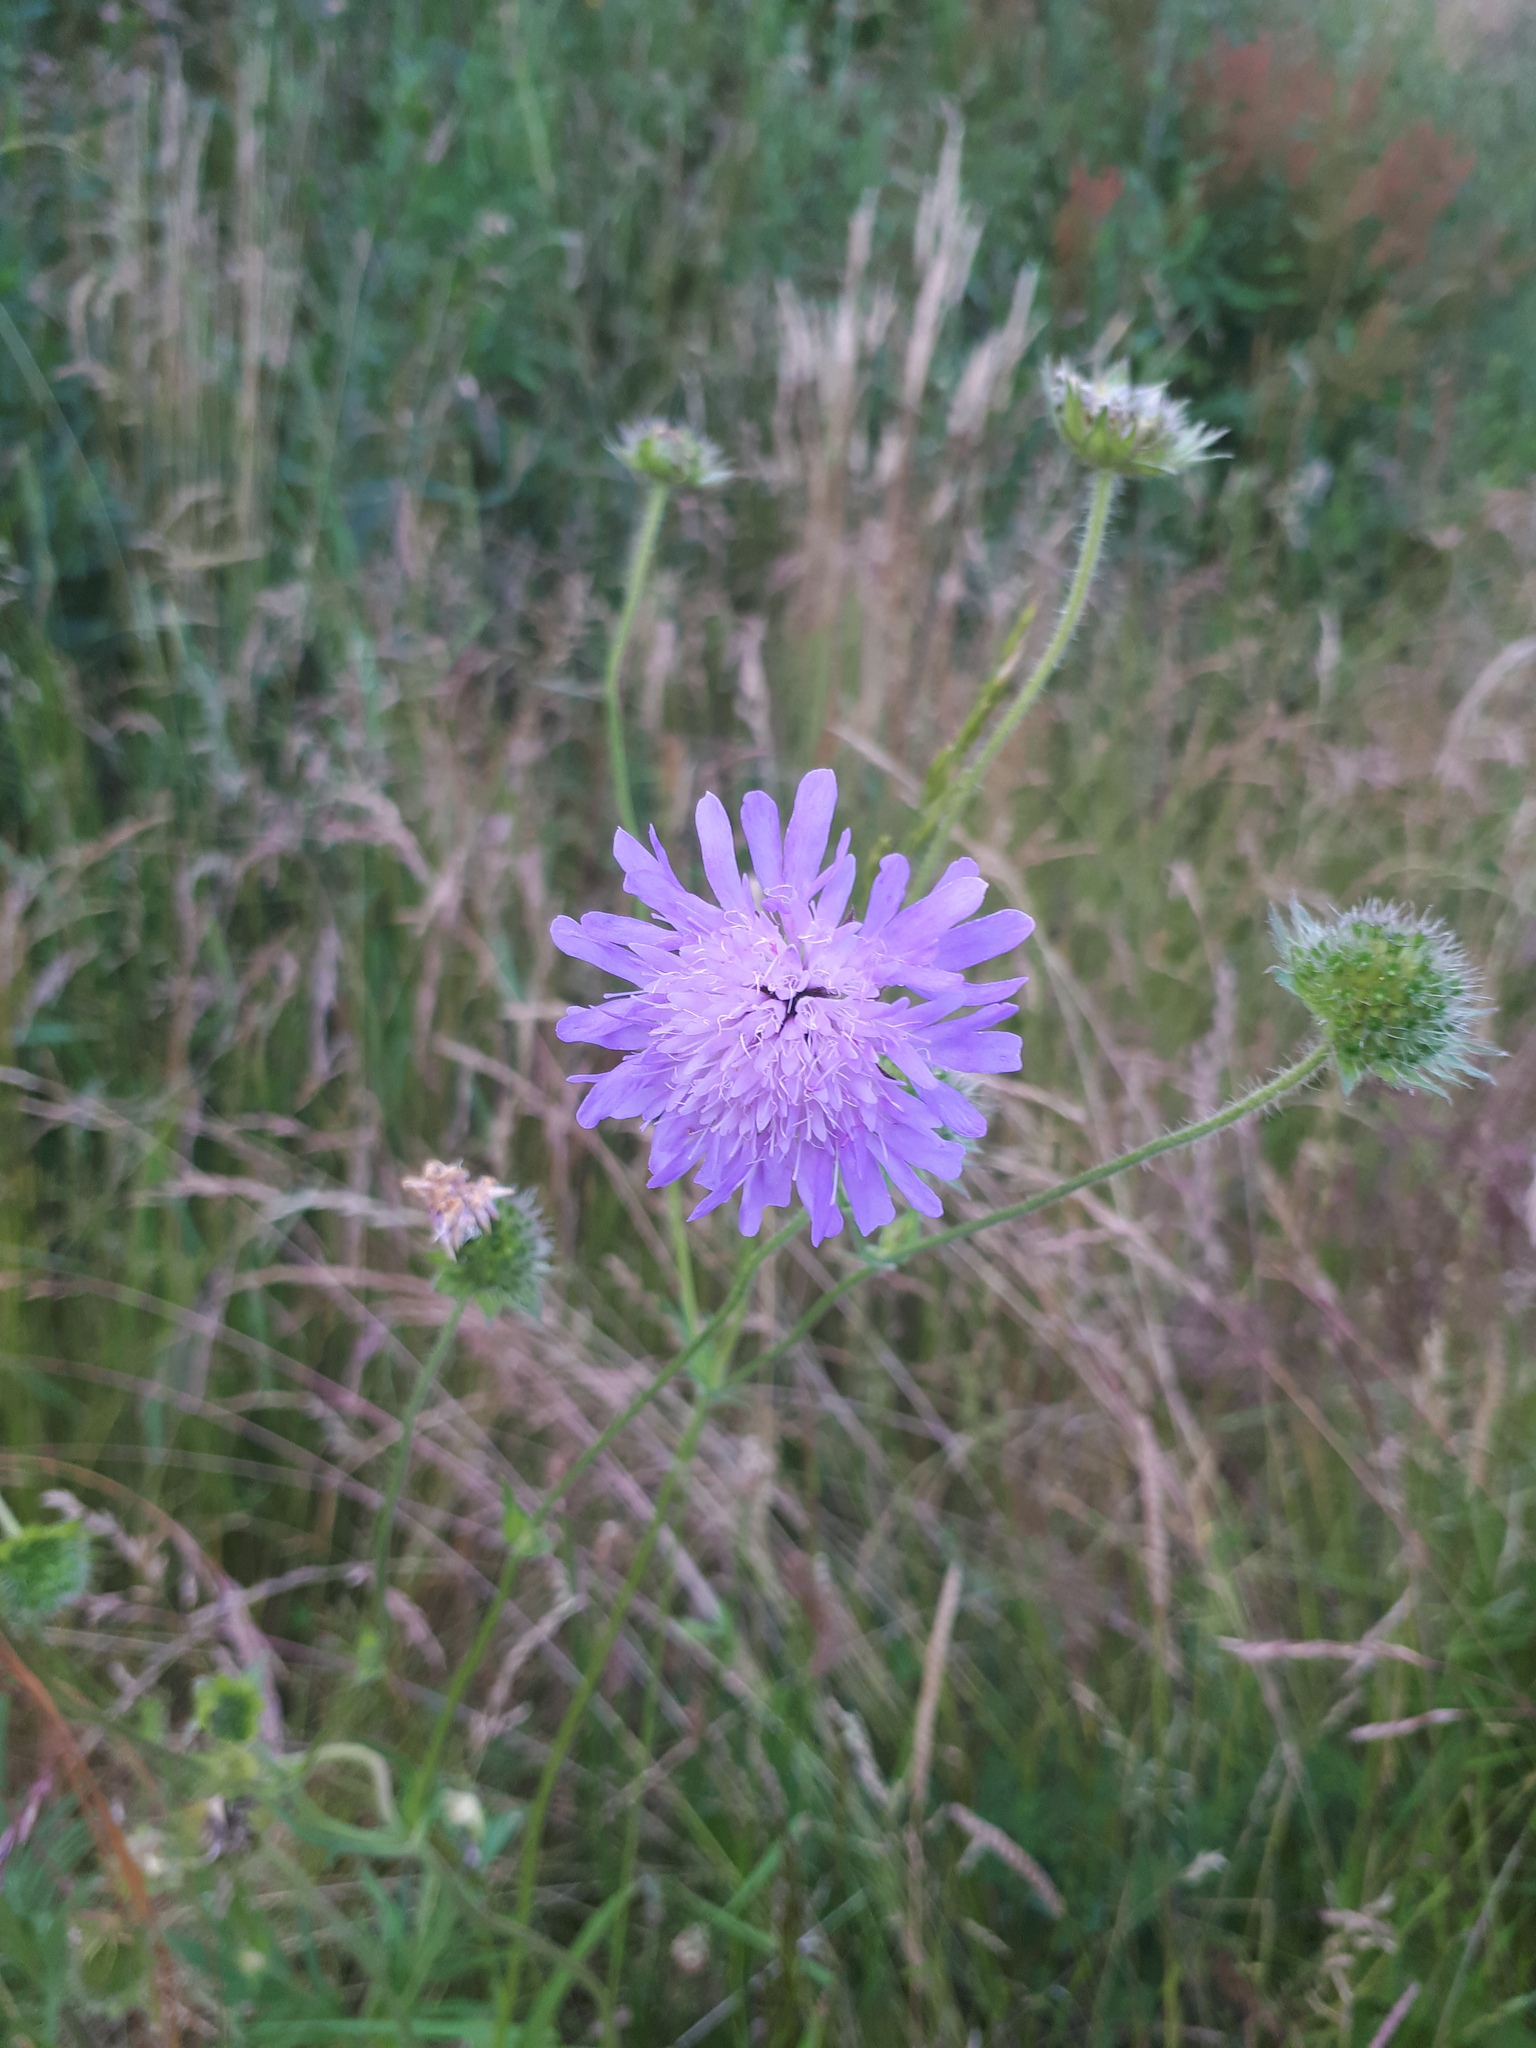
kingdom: Plantae
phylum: Tracheophyta
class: Magnoliopsida
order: Dipsacales
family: Caprifoliaceae
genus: Knautia
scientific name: Knautia arvensis
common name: Field scabiosa
